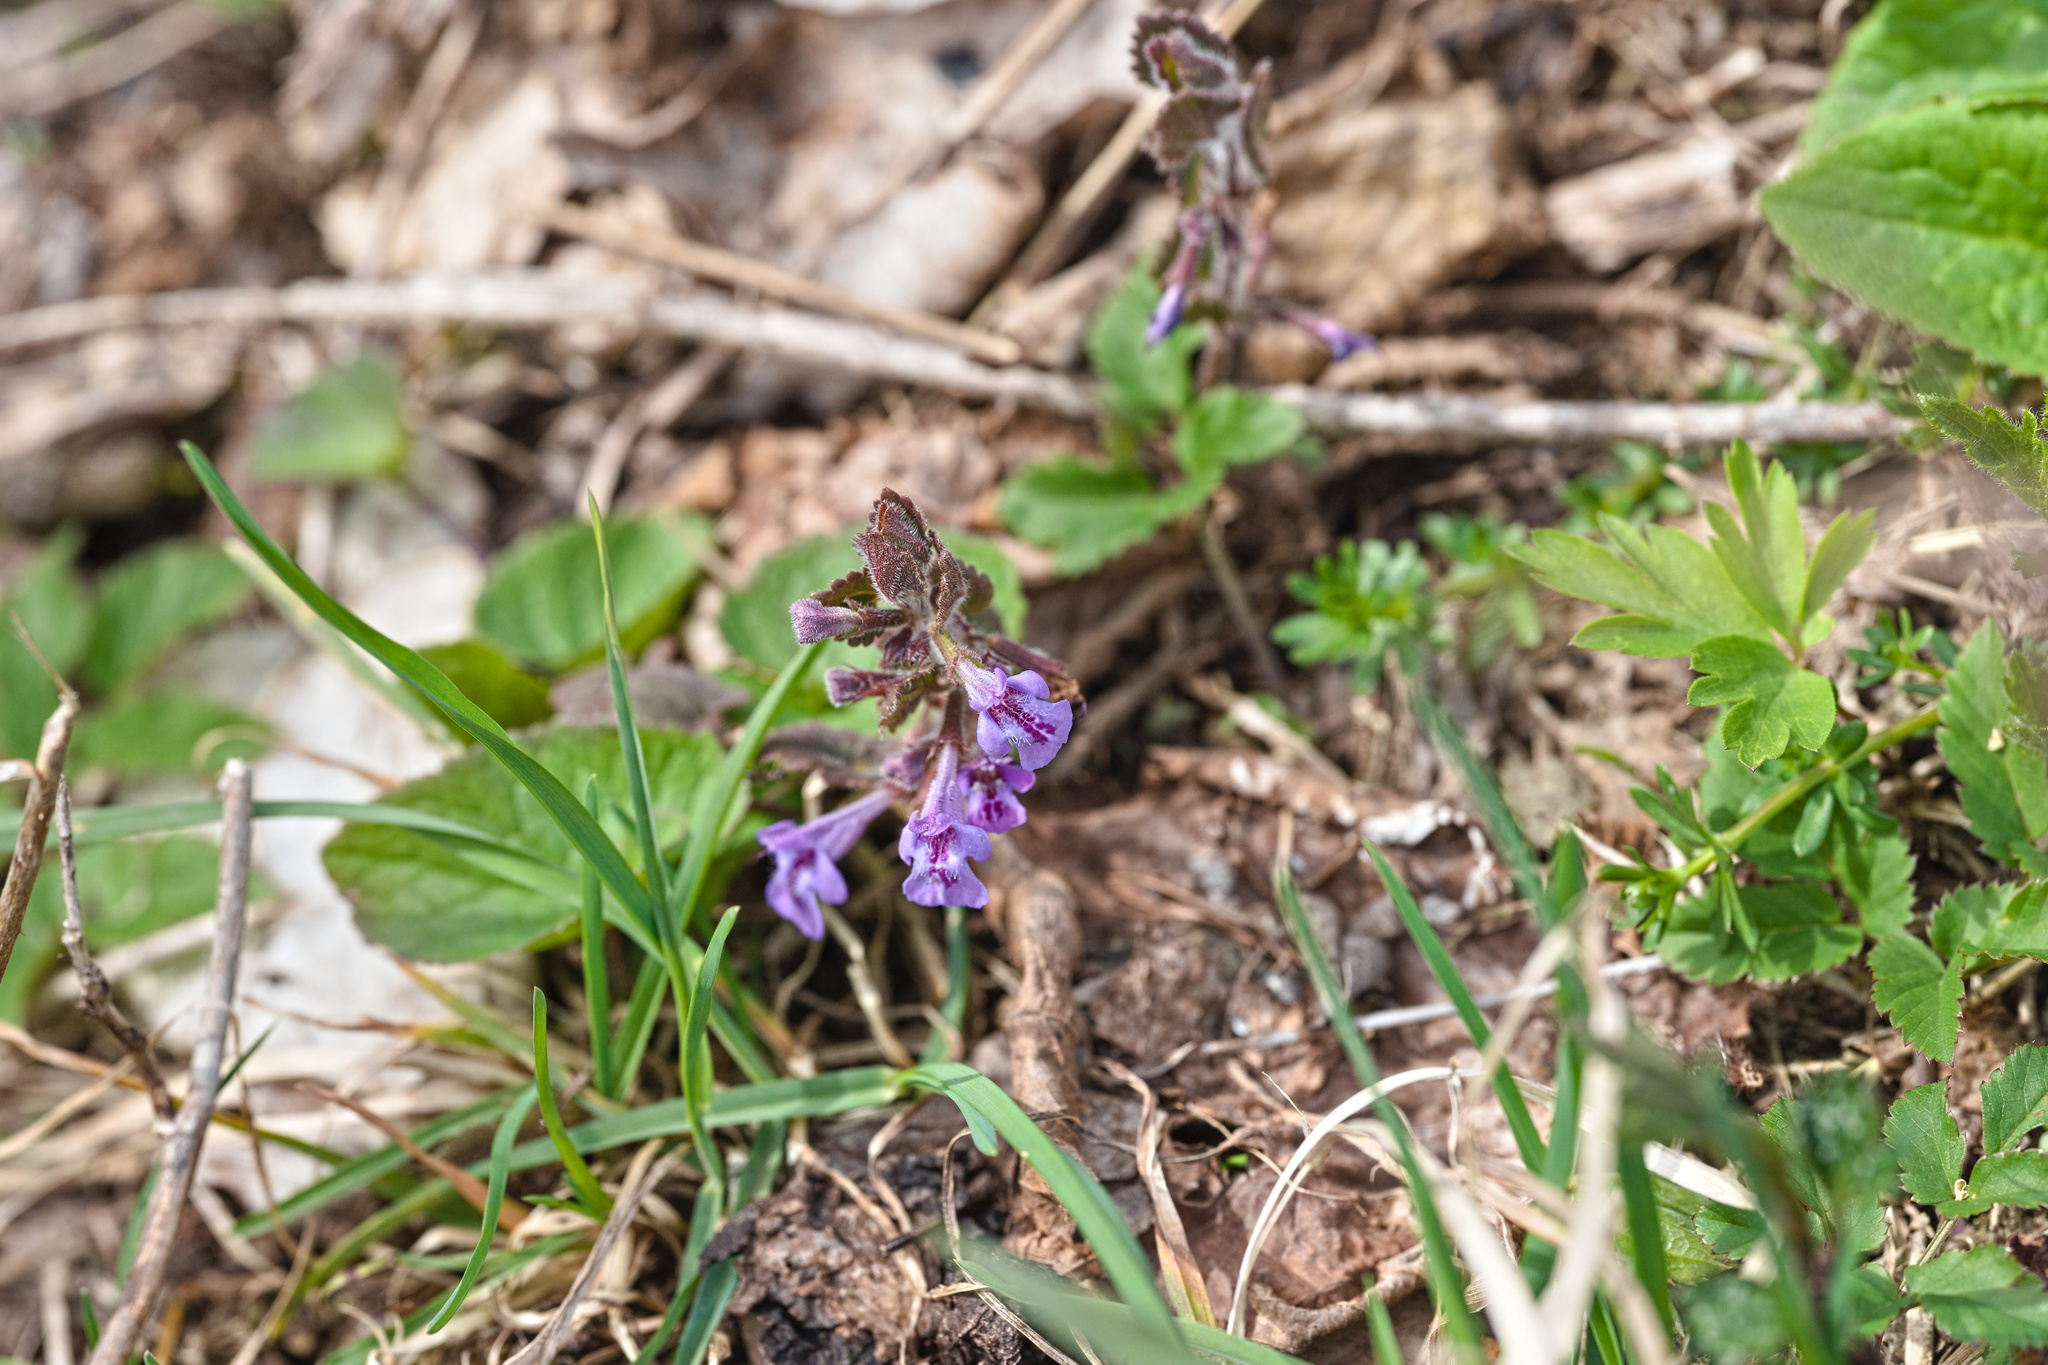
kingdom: Plantae
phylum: Tracheophyta
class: Magnoliopsida
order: Lamiales
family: Lamiaceae
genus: Glechoma
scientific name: Glechoma hederacea
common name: Ground ivy
